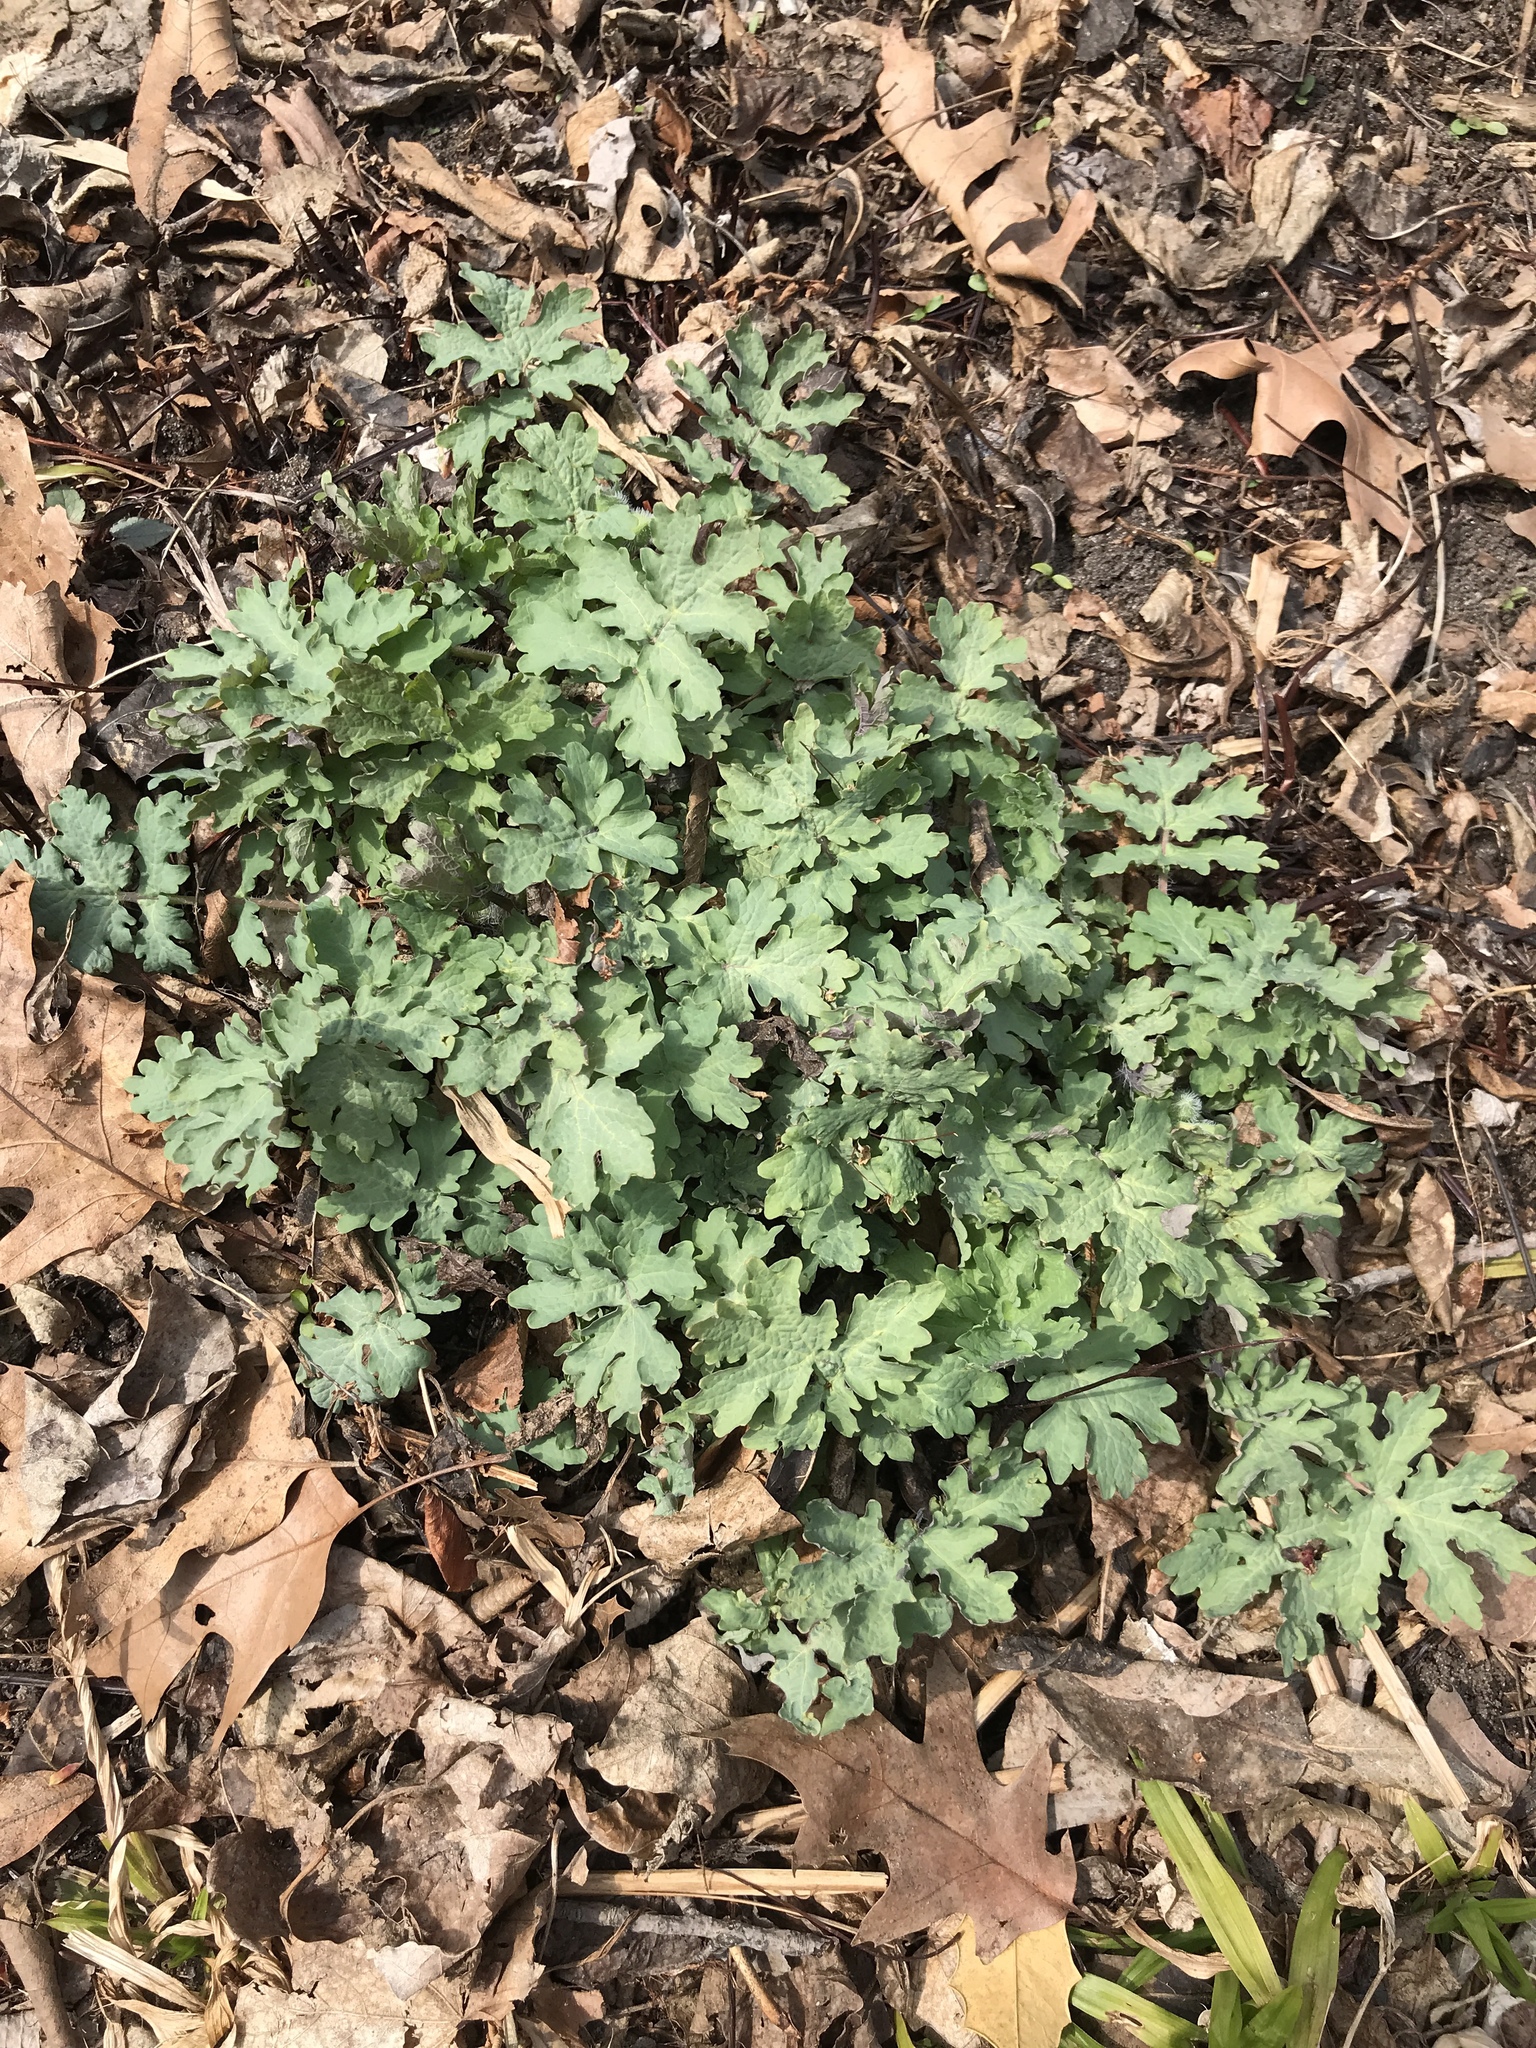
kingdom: Plantae
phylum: Tracheophyta
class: Magnoliopsida
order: Ranunculales
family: Papaveraceae
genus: Stylophorum
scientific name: Stylophorum diphyllum
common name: Celandine poppy
